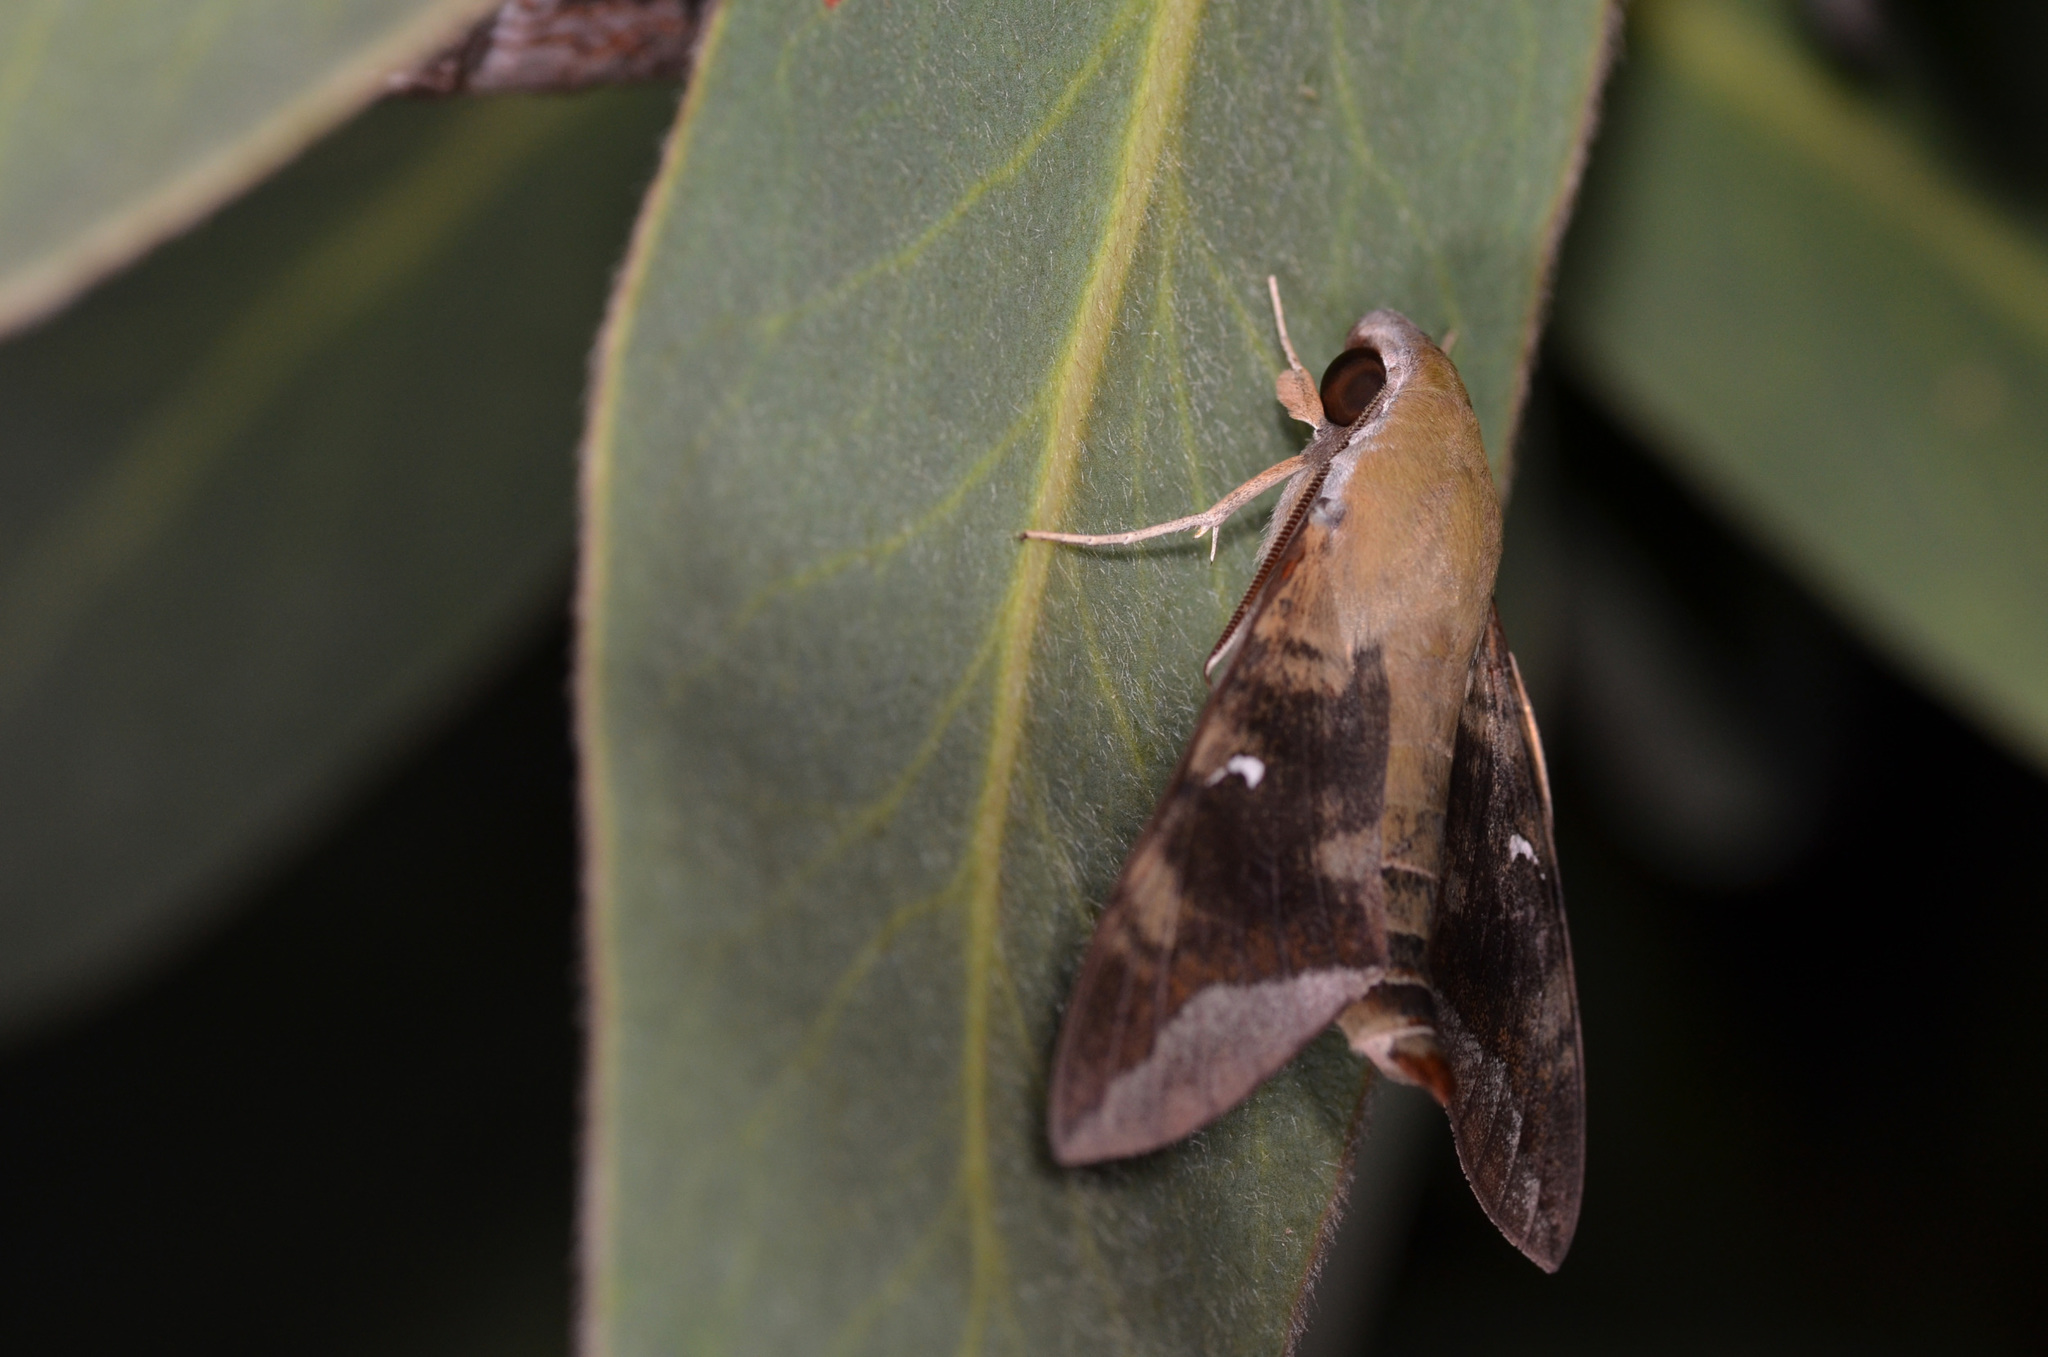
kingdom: Animalia
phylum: Arthropoda
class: Insecta
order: Lepidoptera
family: Sphingidae
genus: Nephele
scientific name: Nephele comma
